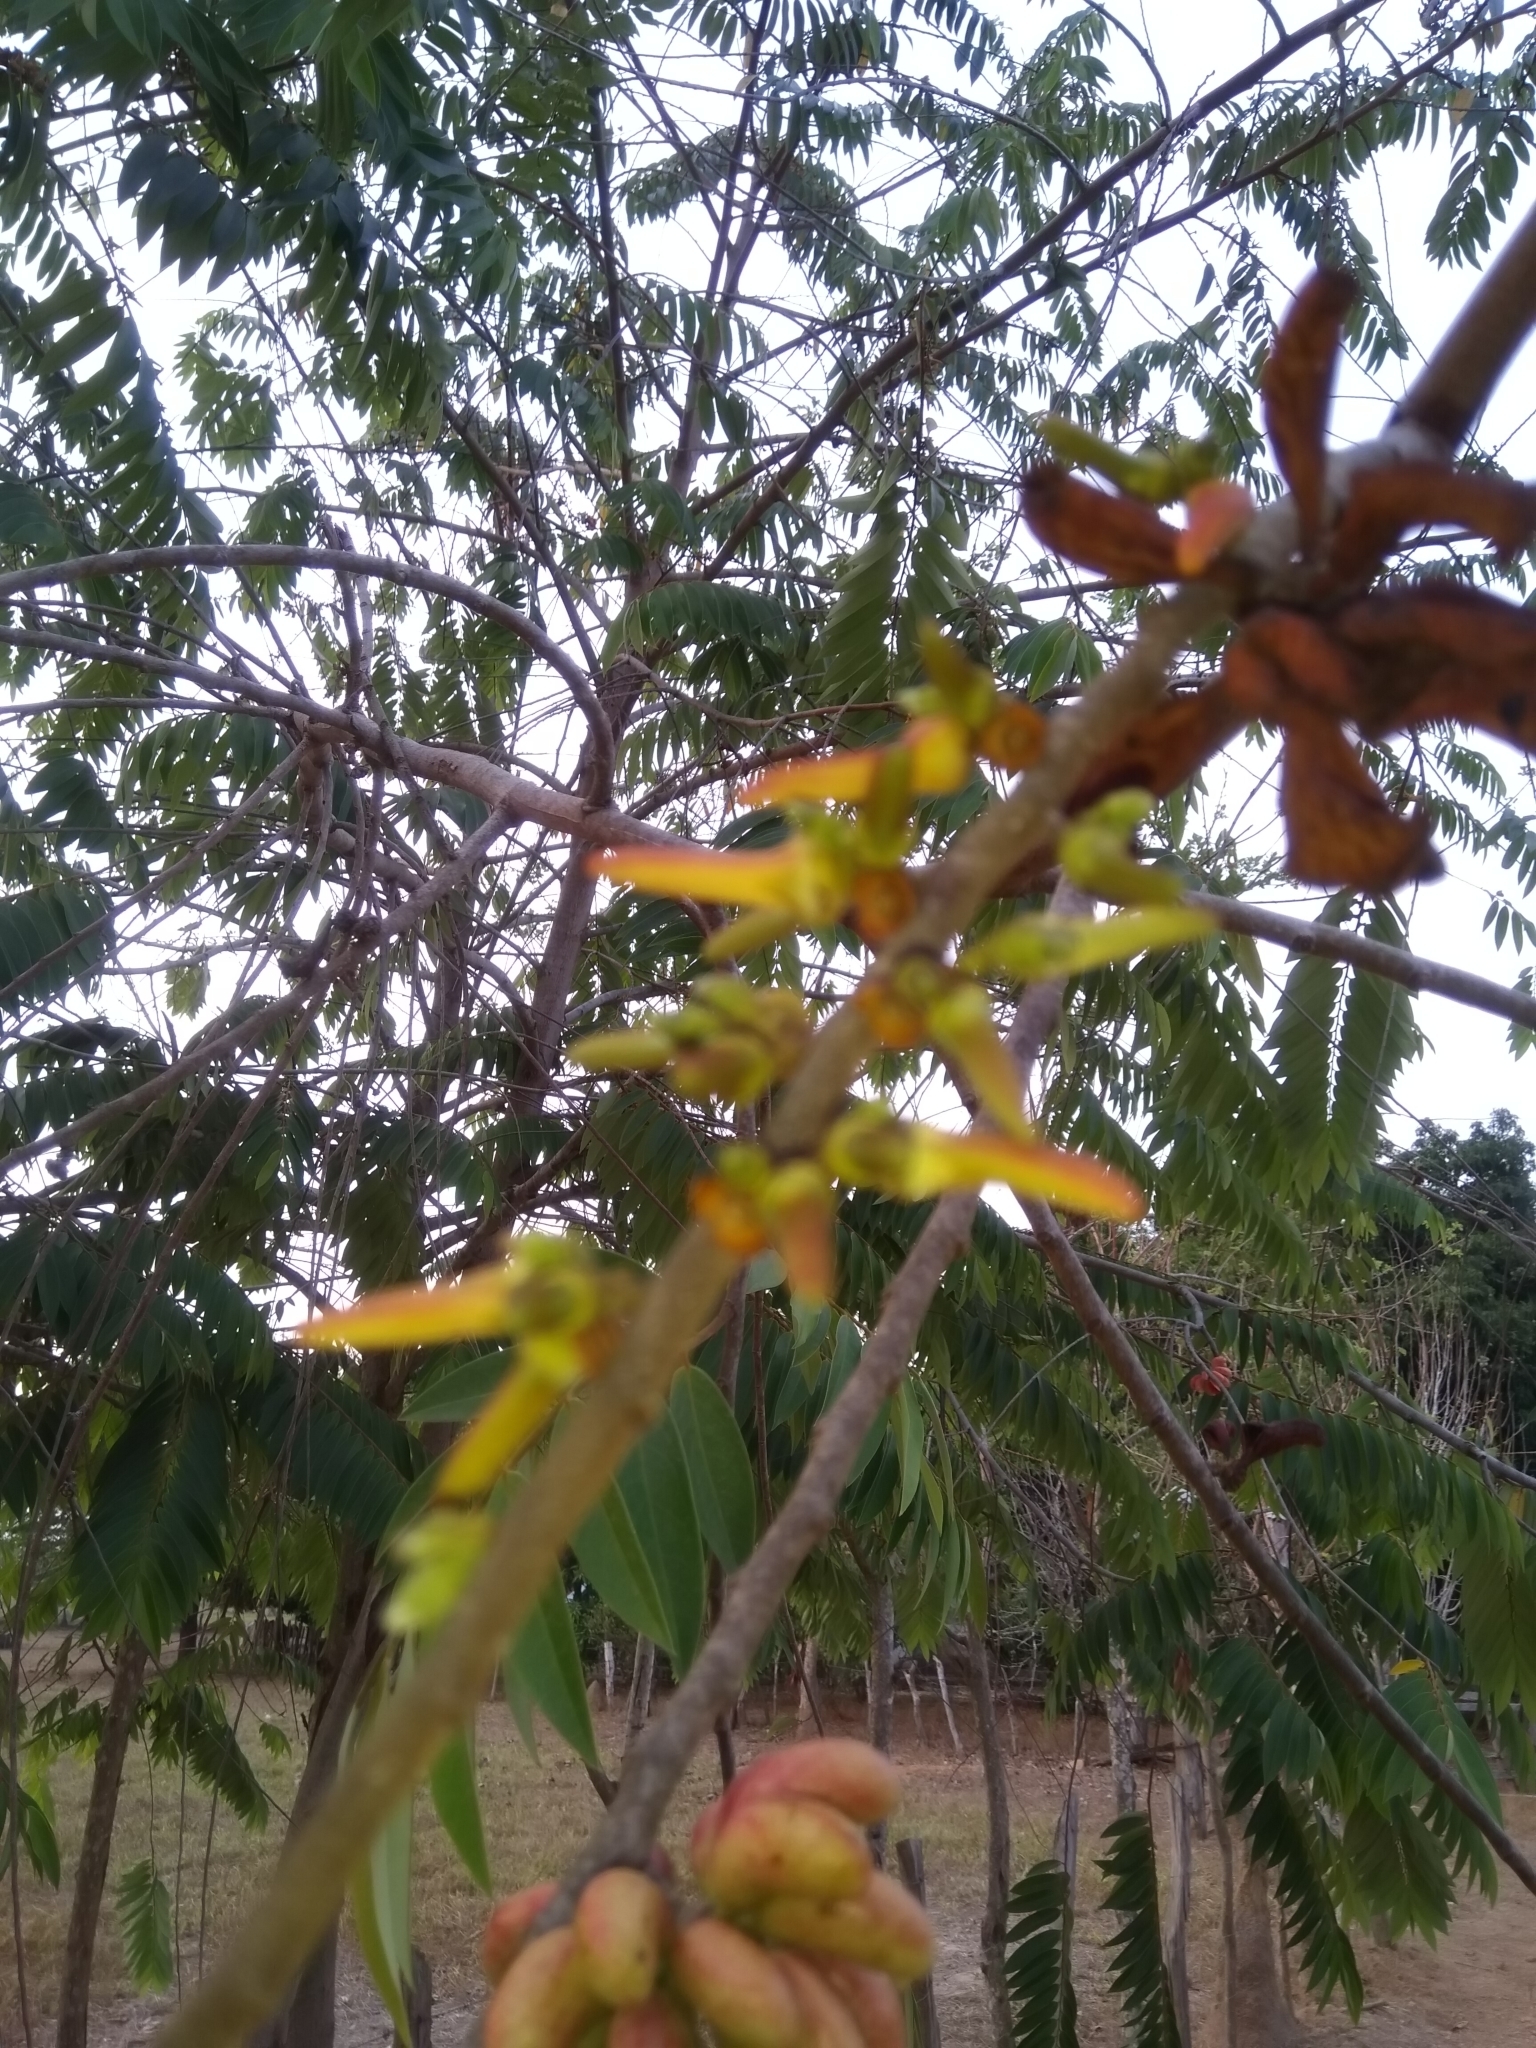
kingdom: Plantae
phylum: Tracheophyta
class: Magnoliopsida
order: Magnoliales
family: Annonaceae
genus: Xylopia
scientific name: Xylopia aromatica
